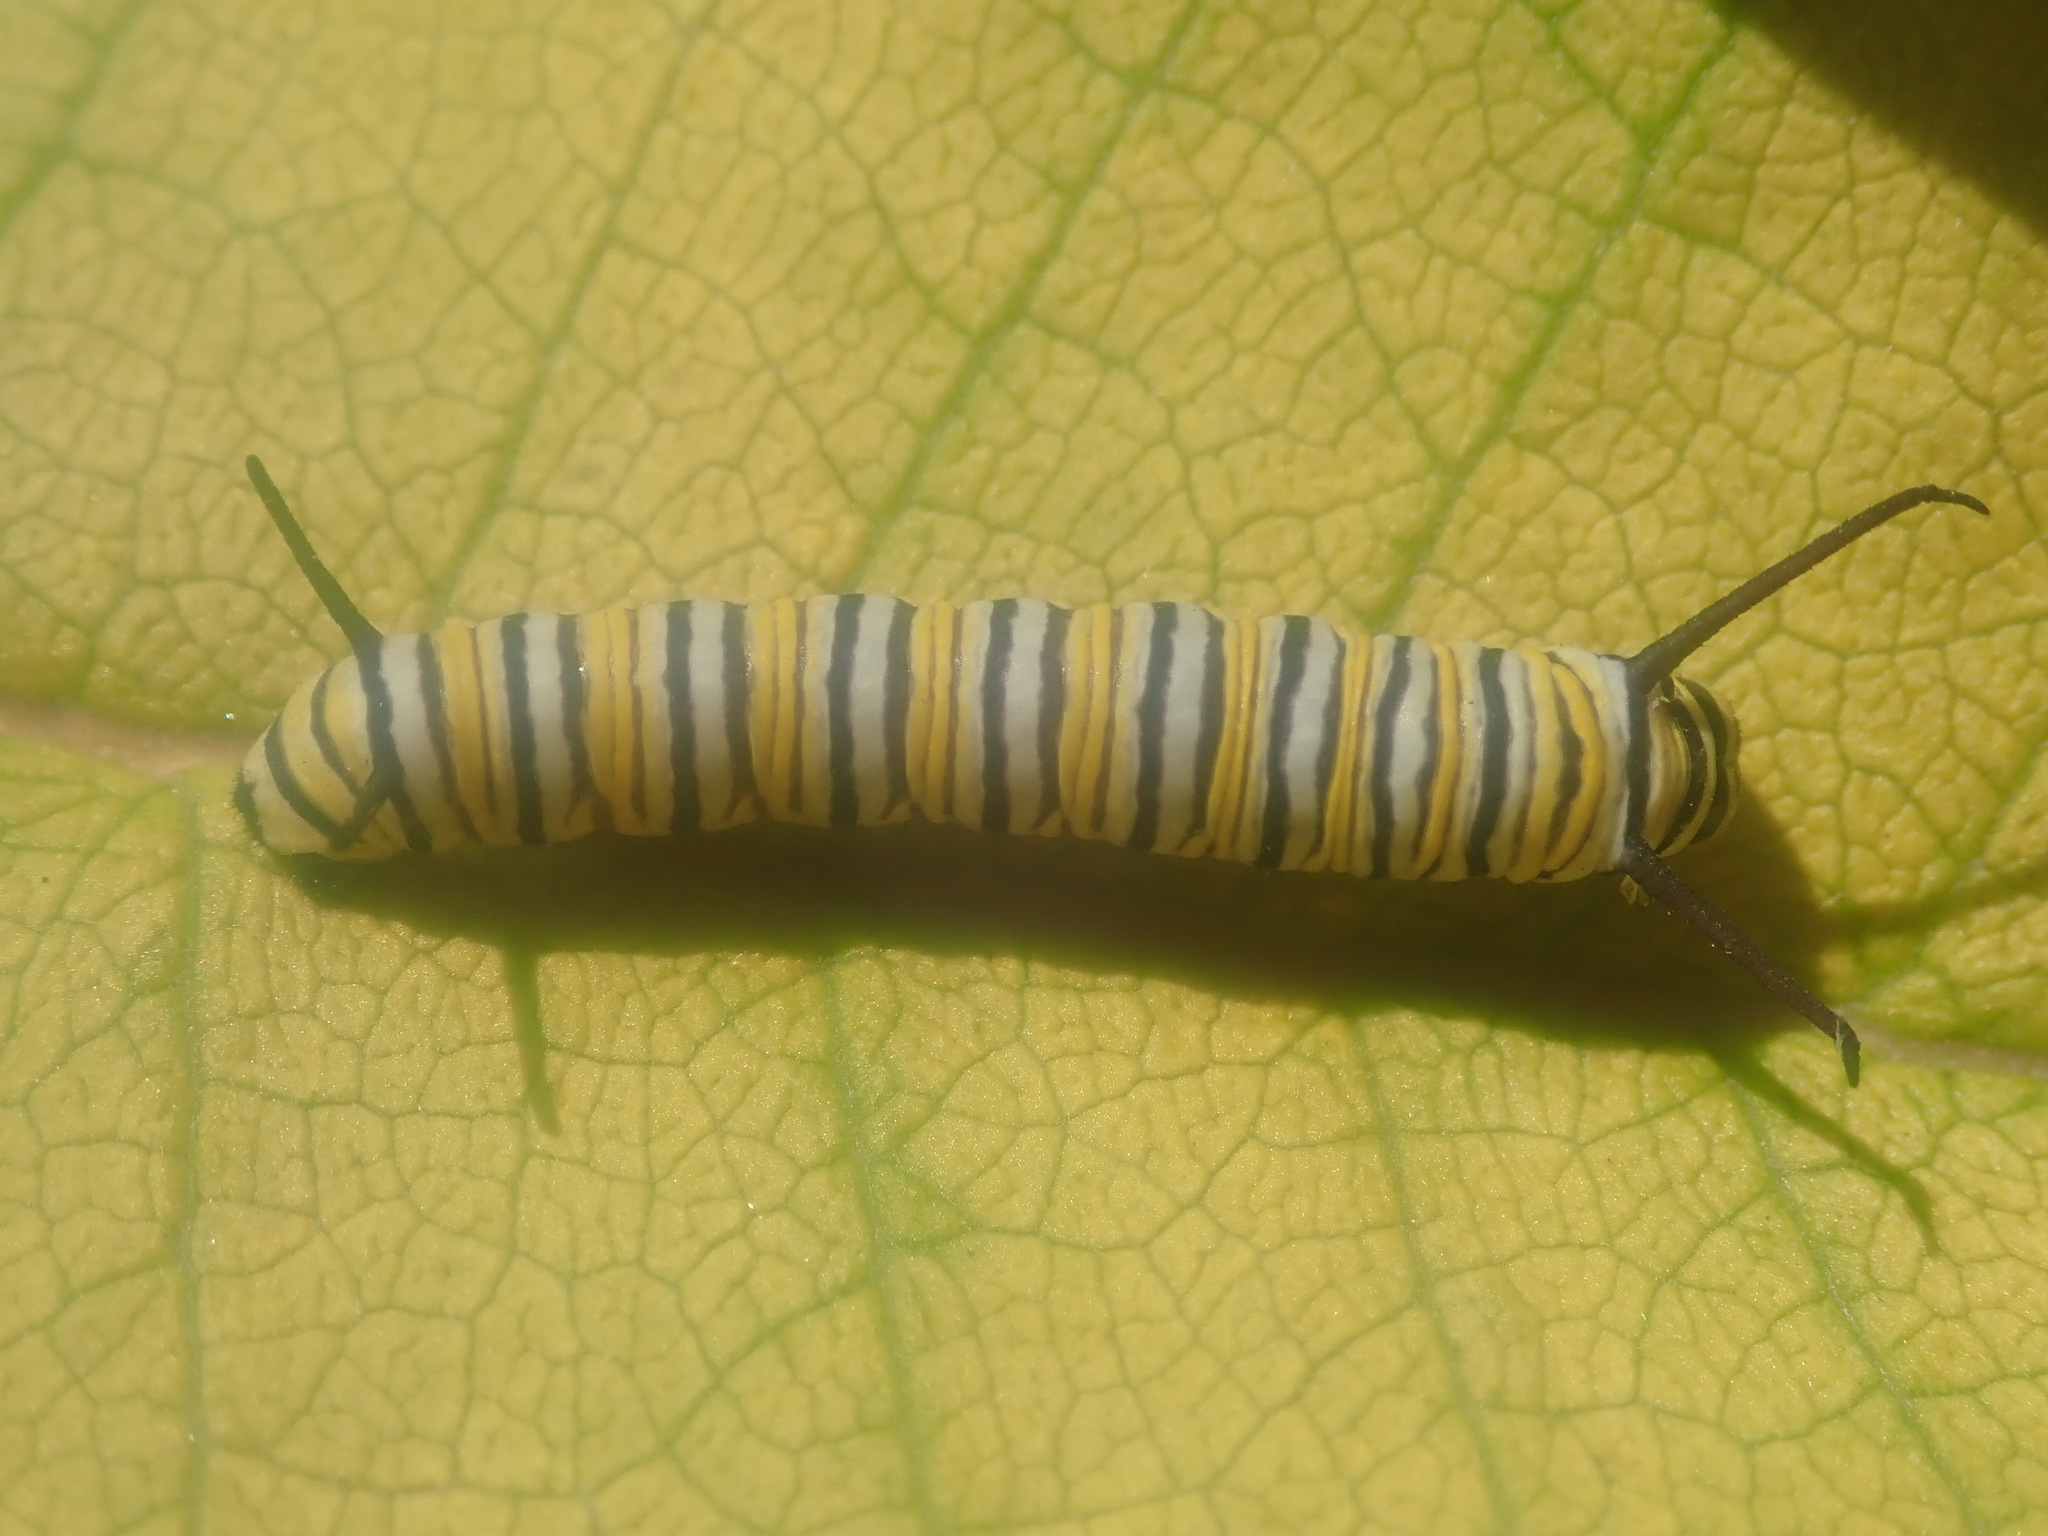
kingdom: Animalia
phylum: Arthropoda
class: Insecta
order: Lepidoptera
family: Nymphalidae
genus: Danaus
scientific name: Danaus plexippus
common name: Monarch
